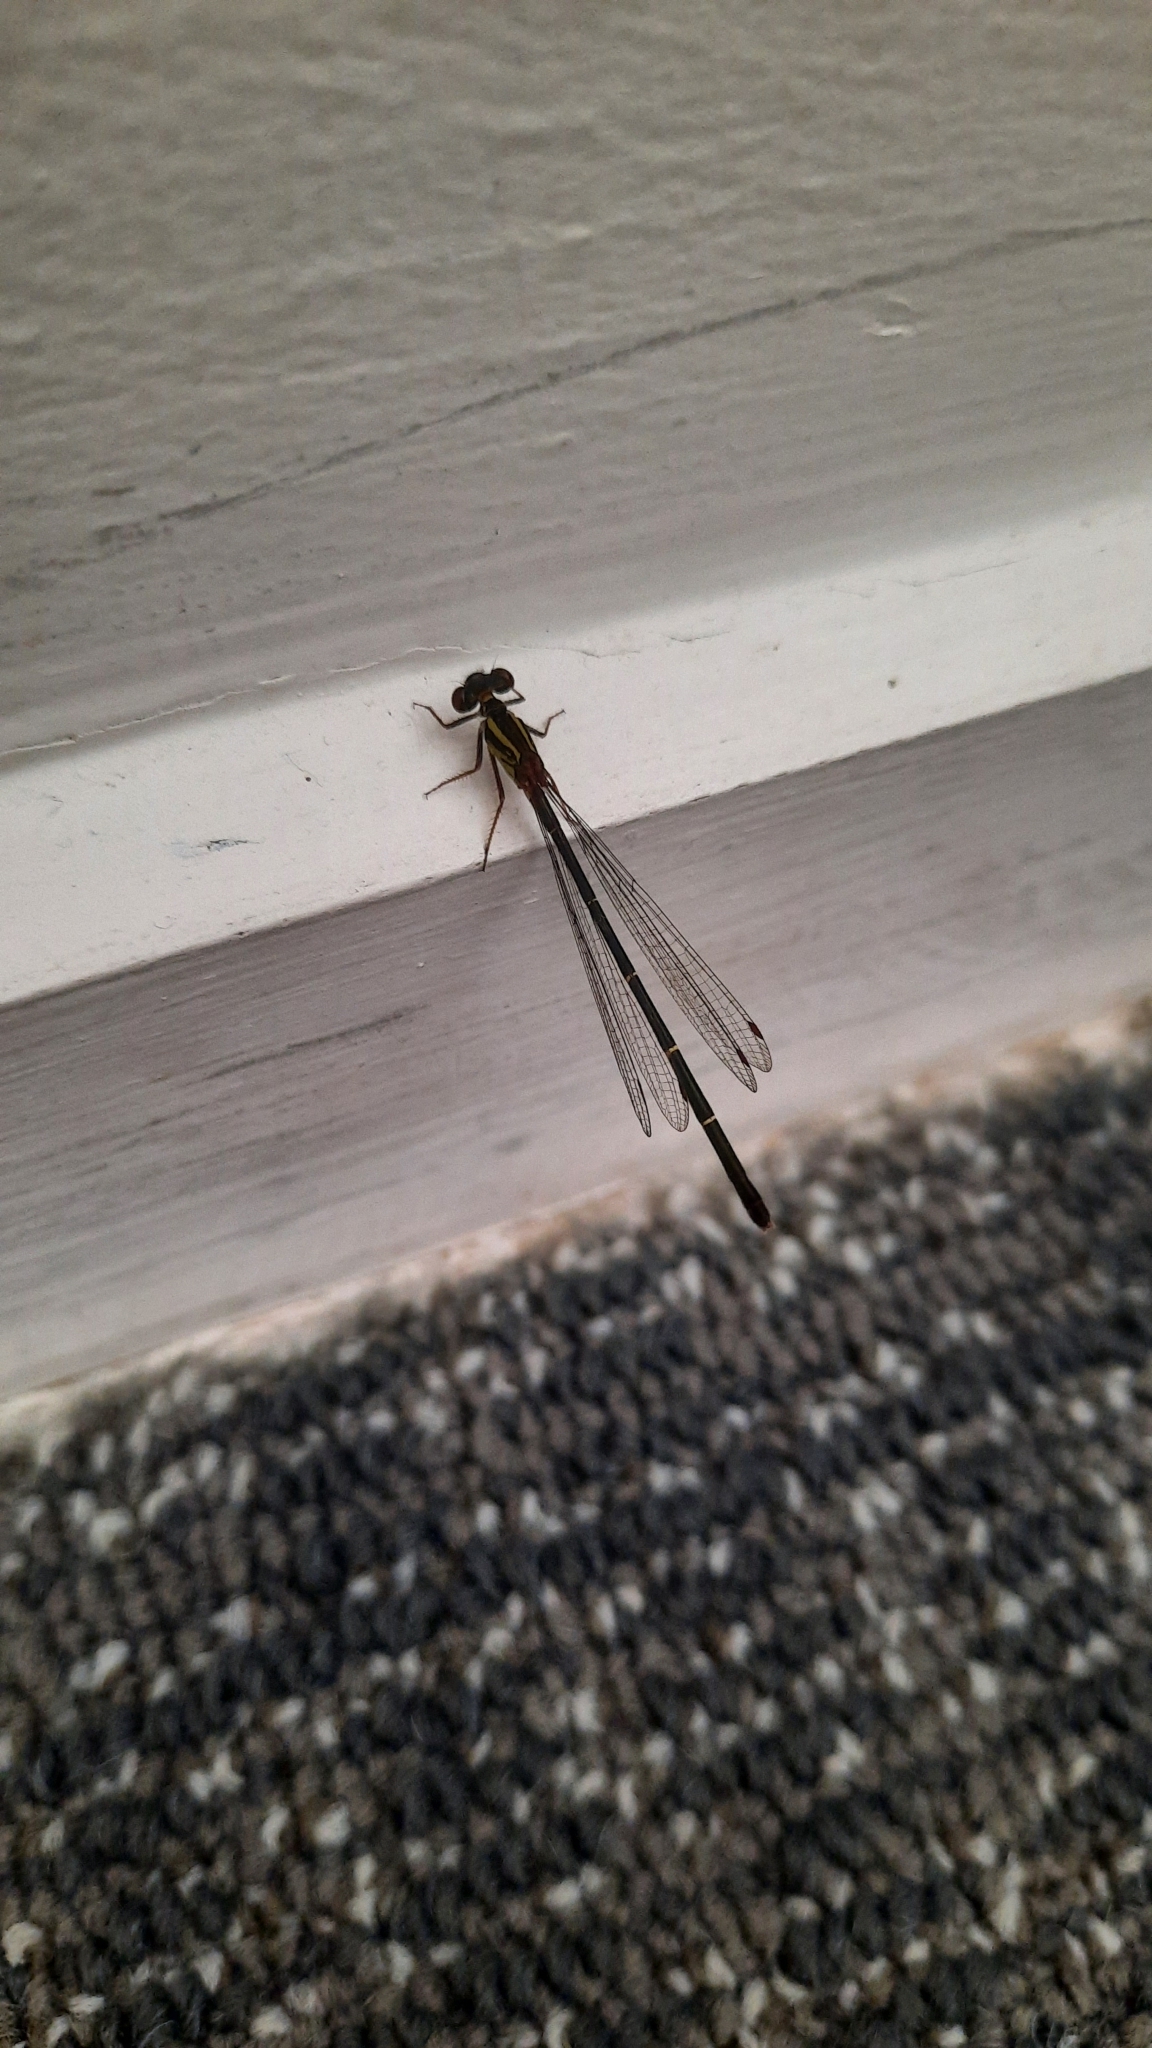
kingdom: Animalia
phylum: Arthropoda
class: Insecta
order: Odonata
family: Coenagrionidae
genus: Xanthocnemis
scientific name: Xanthocnemis zealandica
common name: Common redcoat damselfly
